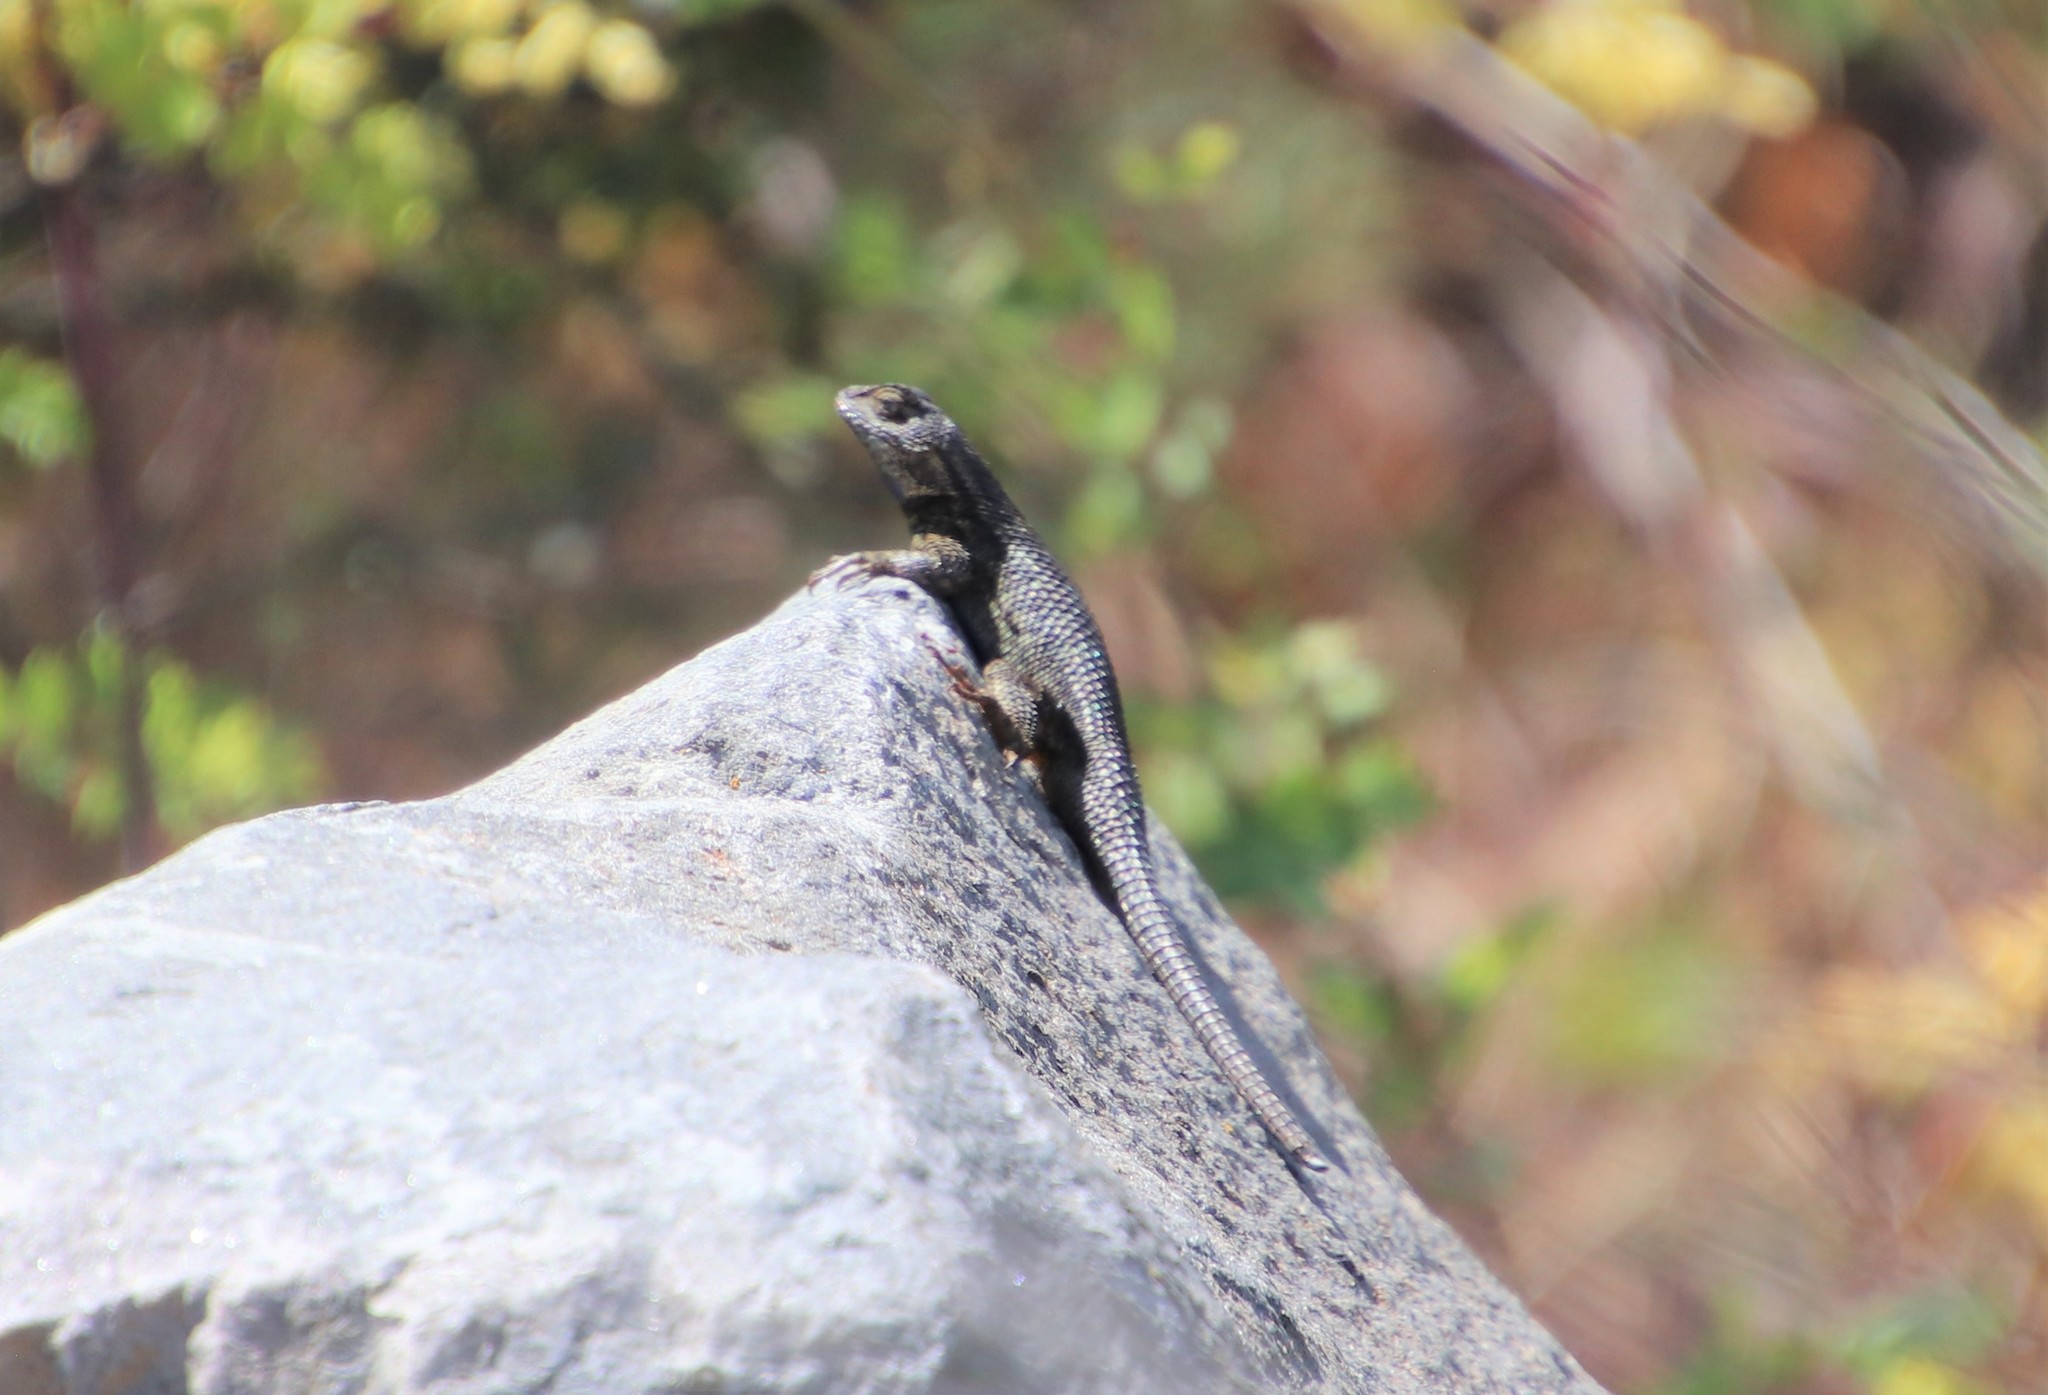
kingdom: Animalia
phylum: Chordata
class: Squamata
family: Phrynosomatidae
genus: Sceloporus
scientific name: Sceloporus occidentalis
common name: Western fence lizard
